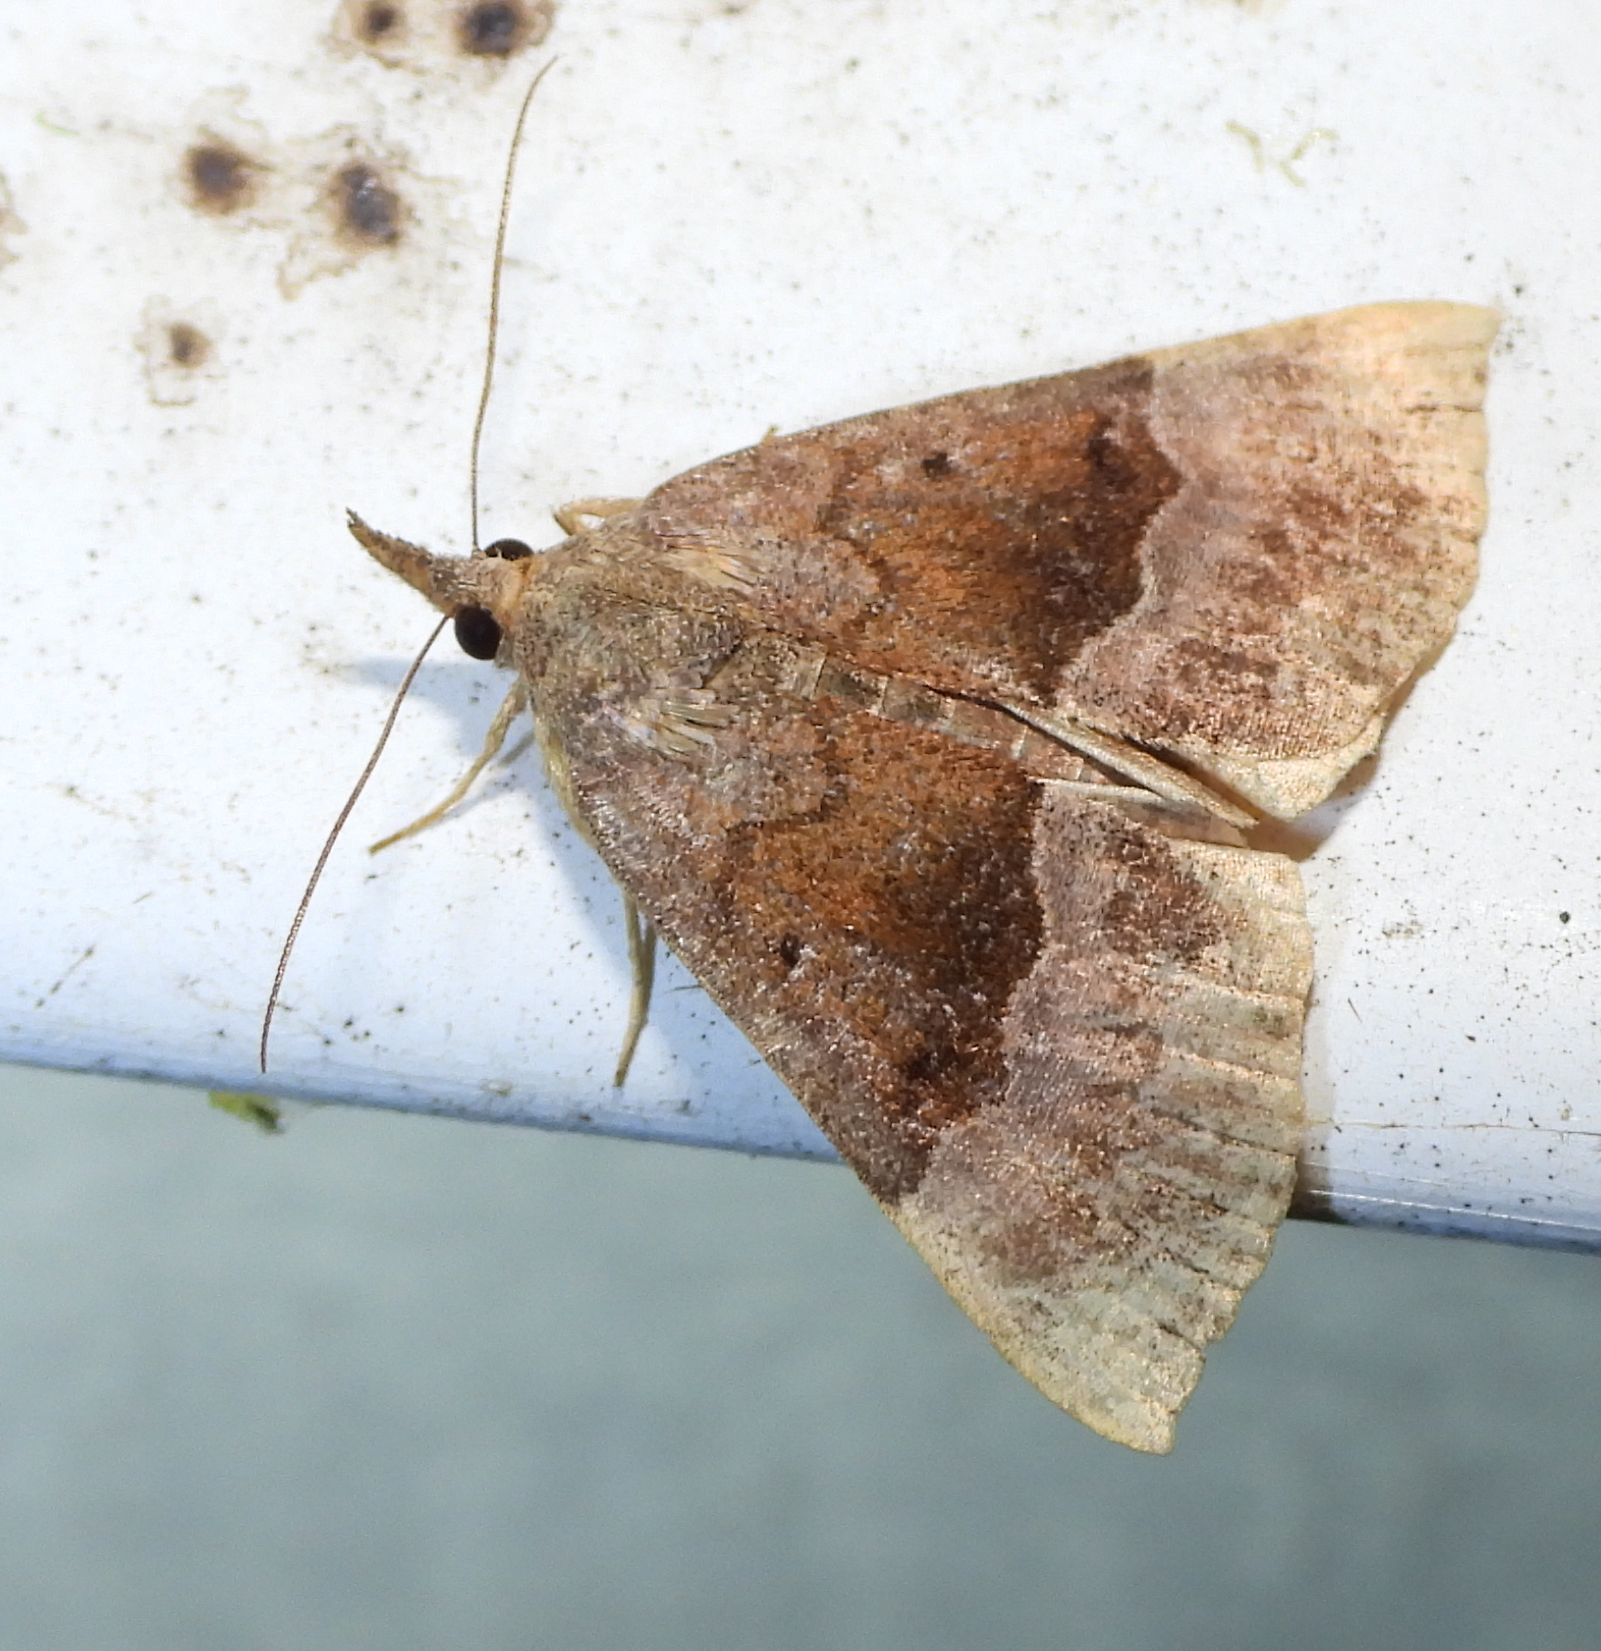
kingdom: Animalia
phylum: Arthropoda
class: Insecta
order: Lepidoptera
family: Erebidae
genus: Hypena
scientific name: Hypena madefactalis
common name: Gray-edged snout
